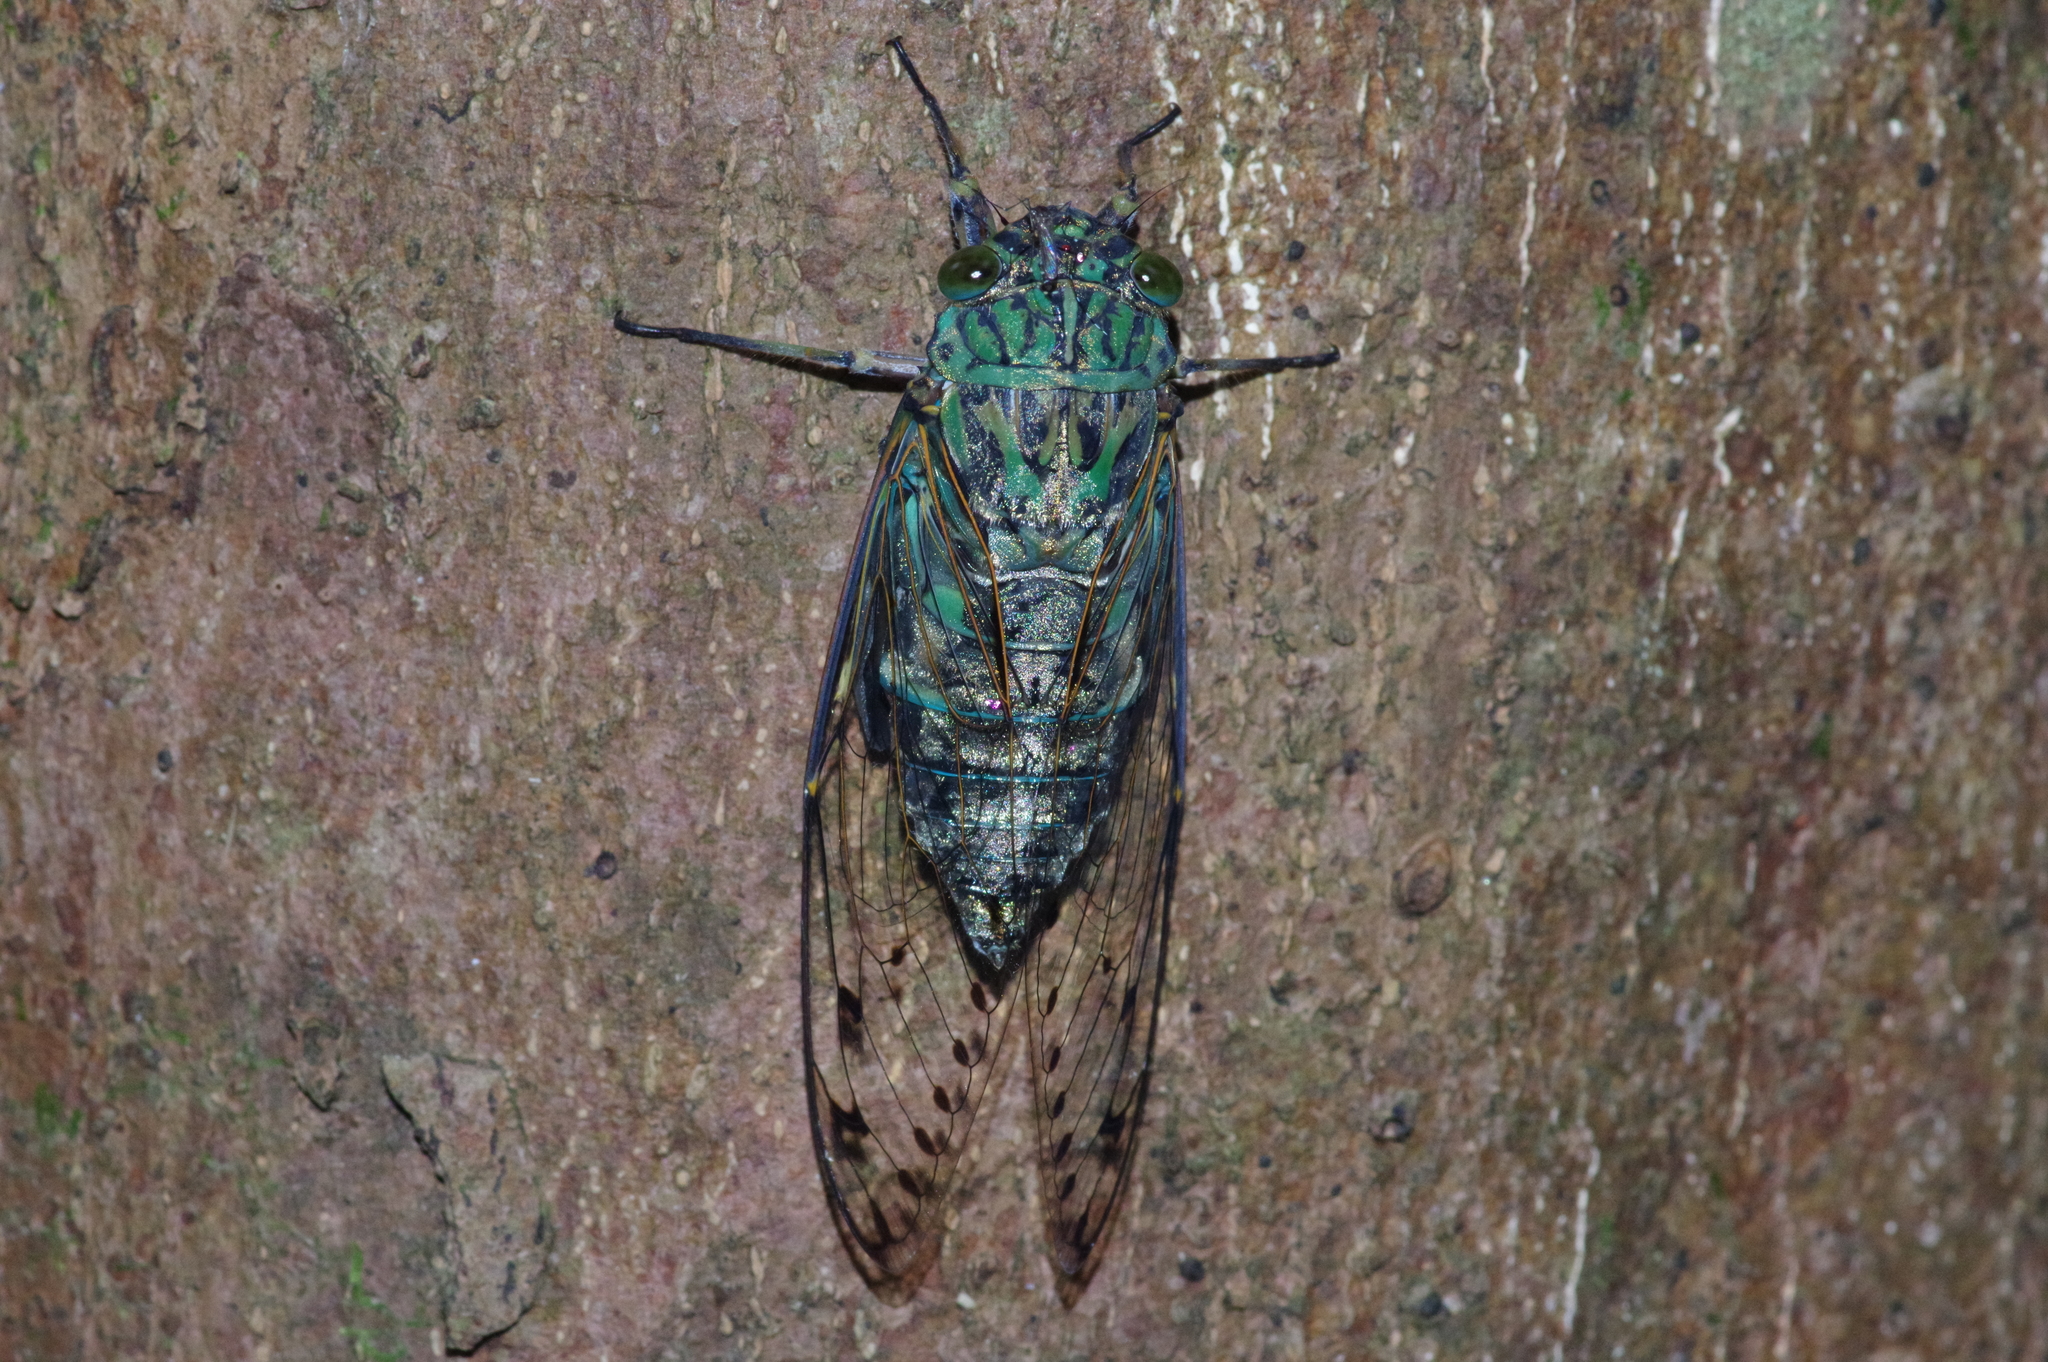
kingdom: Animalia
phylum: Arthropoda
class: Insecta
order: Hemiptera
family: Cicadidae
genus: Meimuna
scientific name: Meimuna oshimensis
